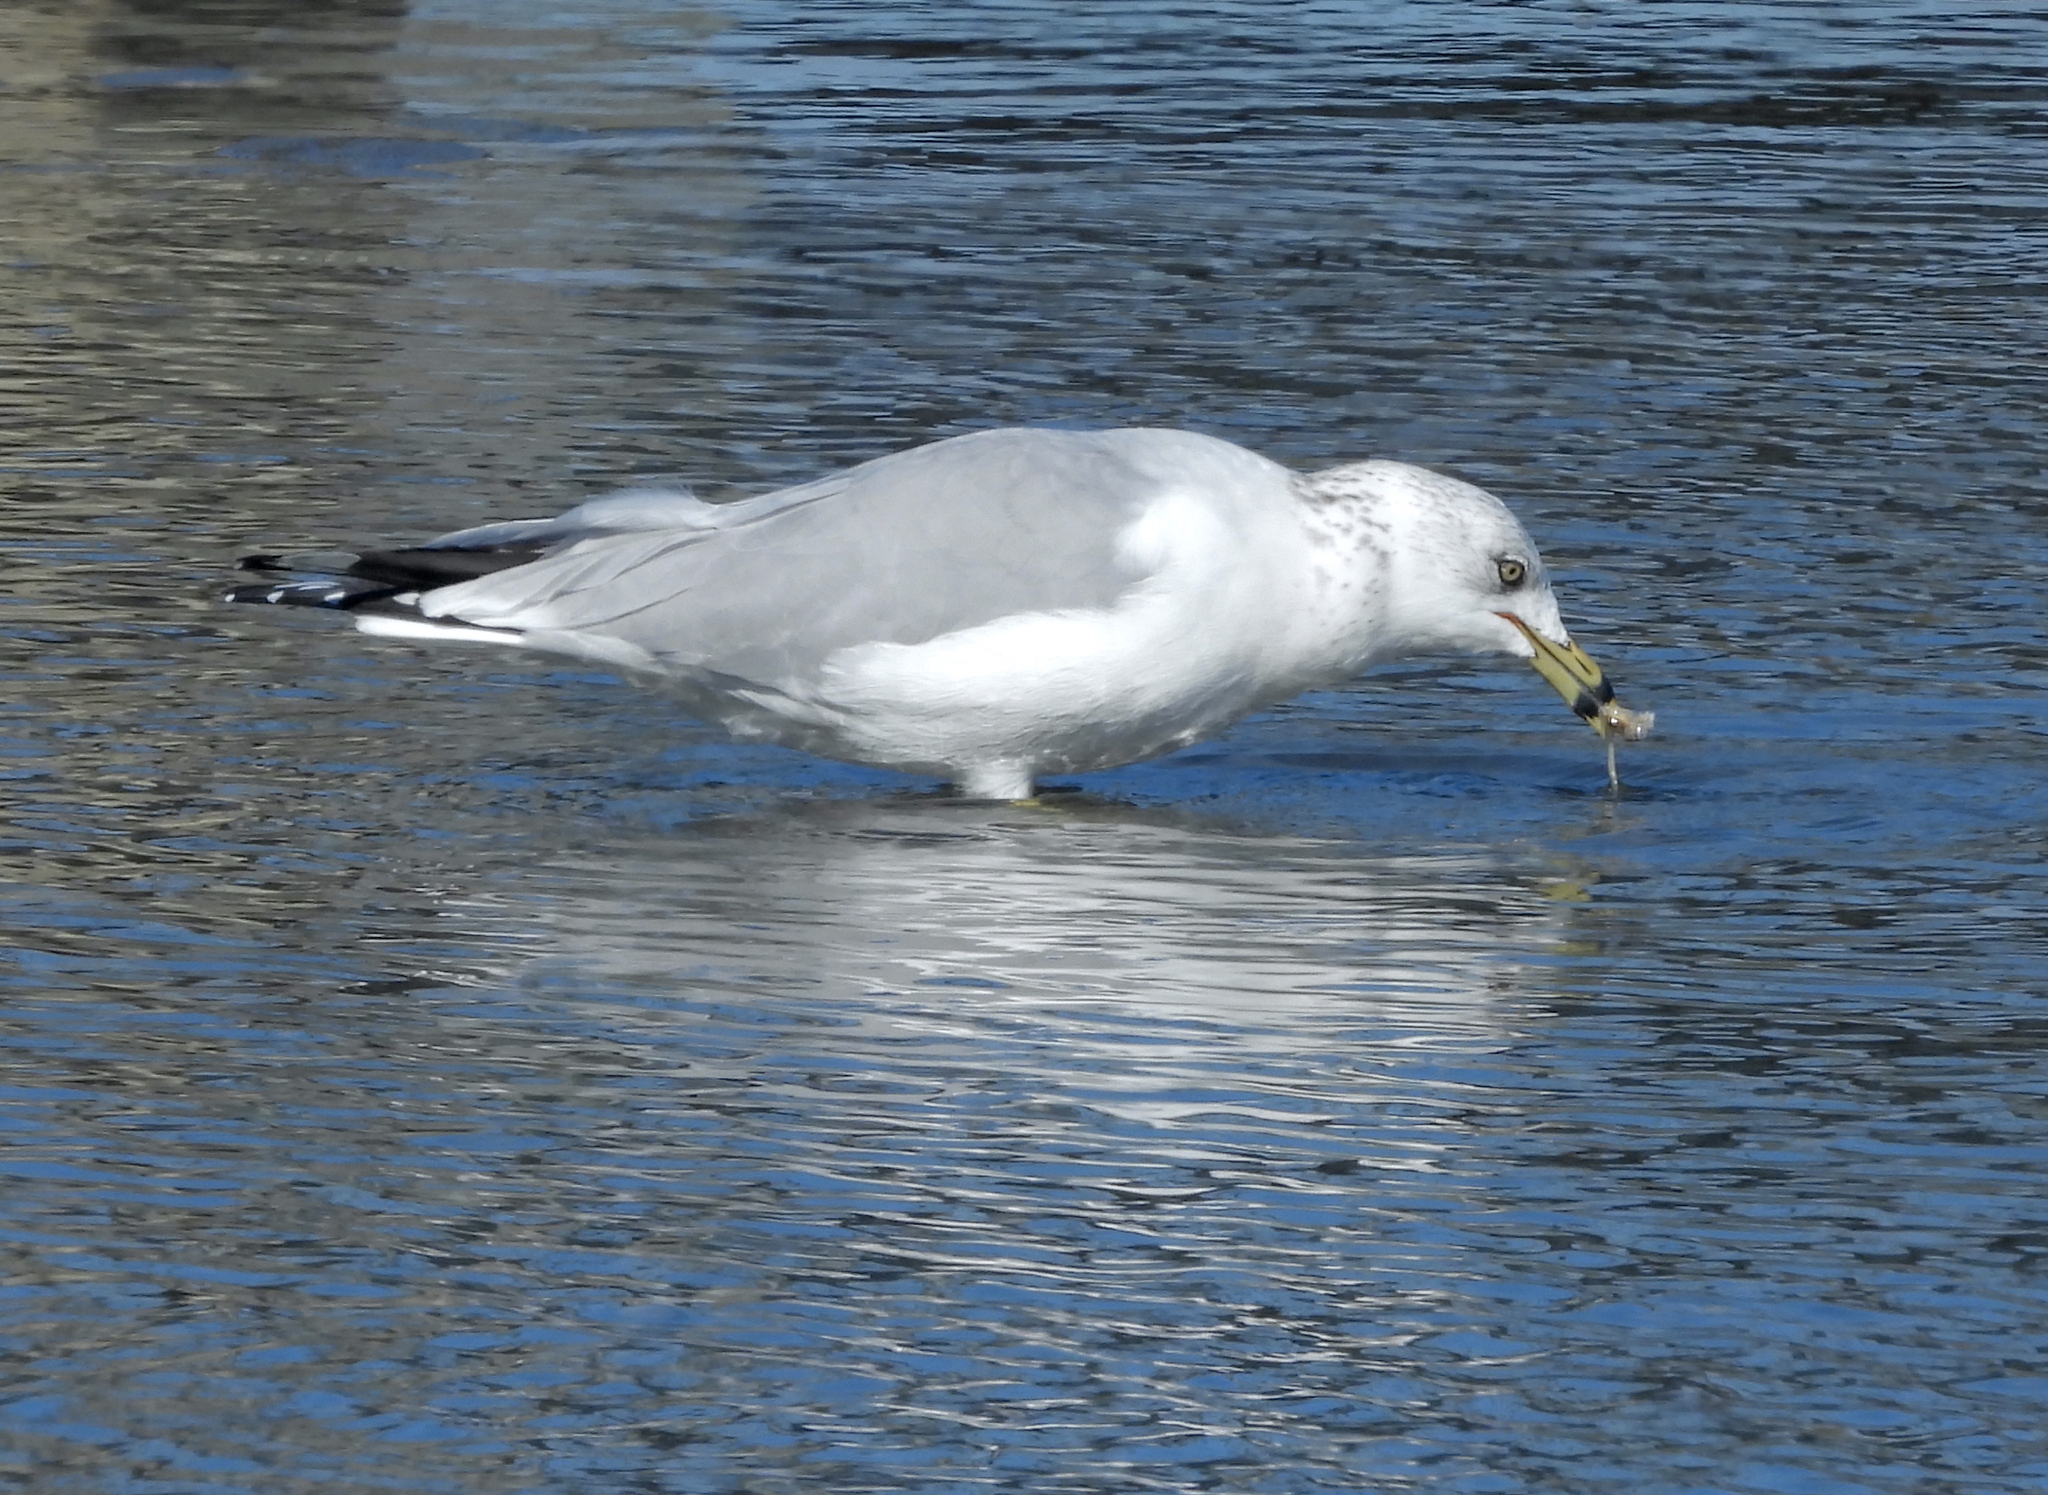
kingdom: Animalia
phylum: Chordata
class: Aves
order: Charadriiformes
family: Laridae
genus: Larus
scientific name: Larus delawarensis
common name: Ring-billed gull
